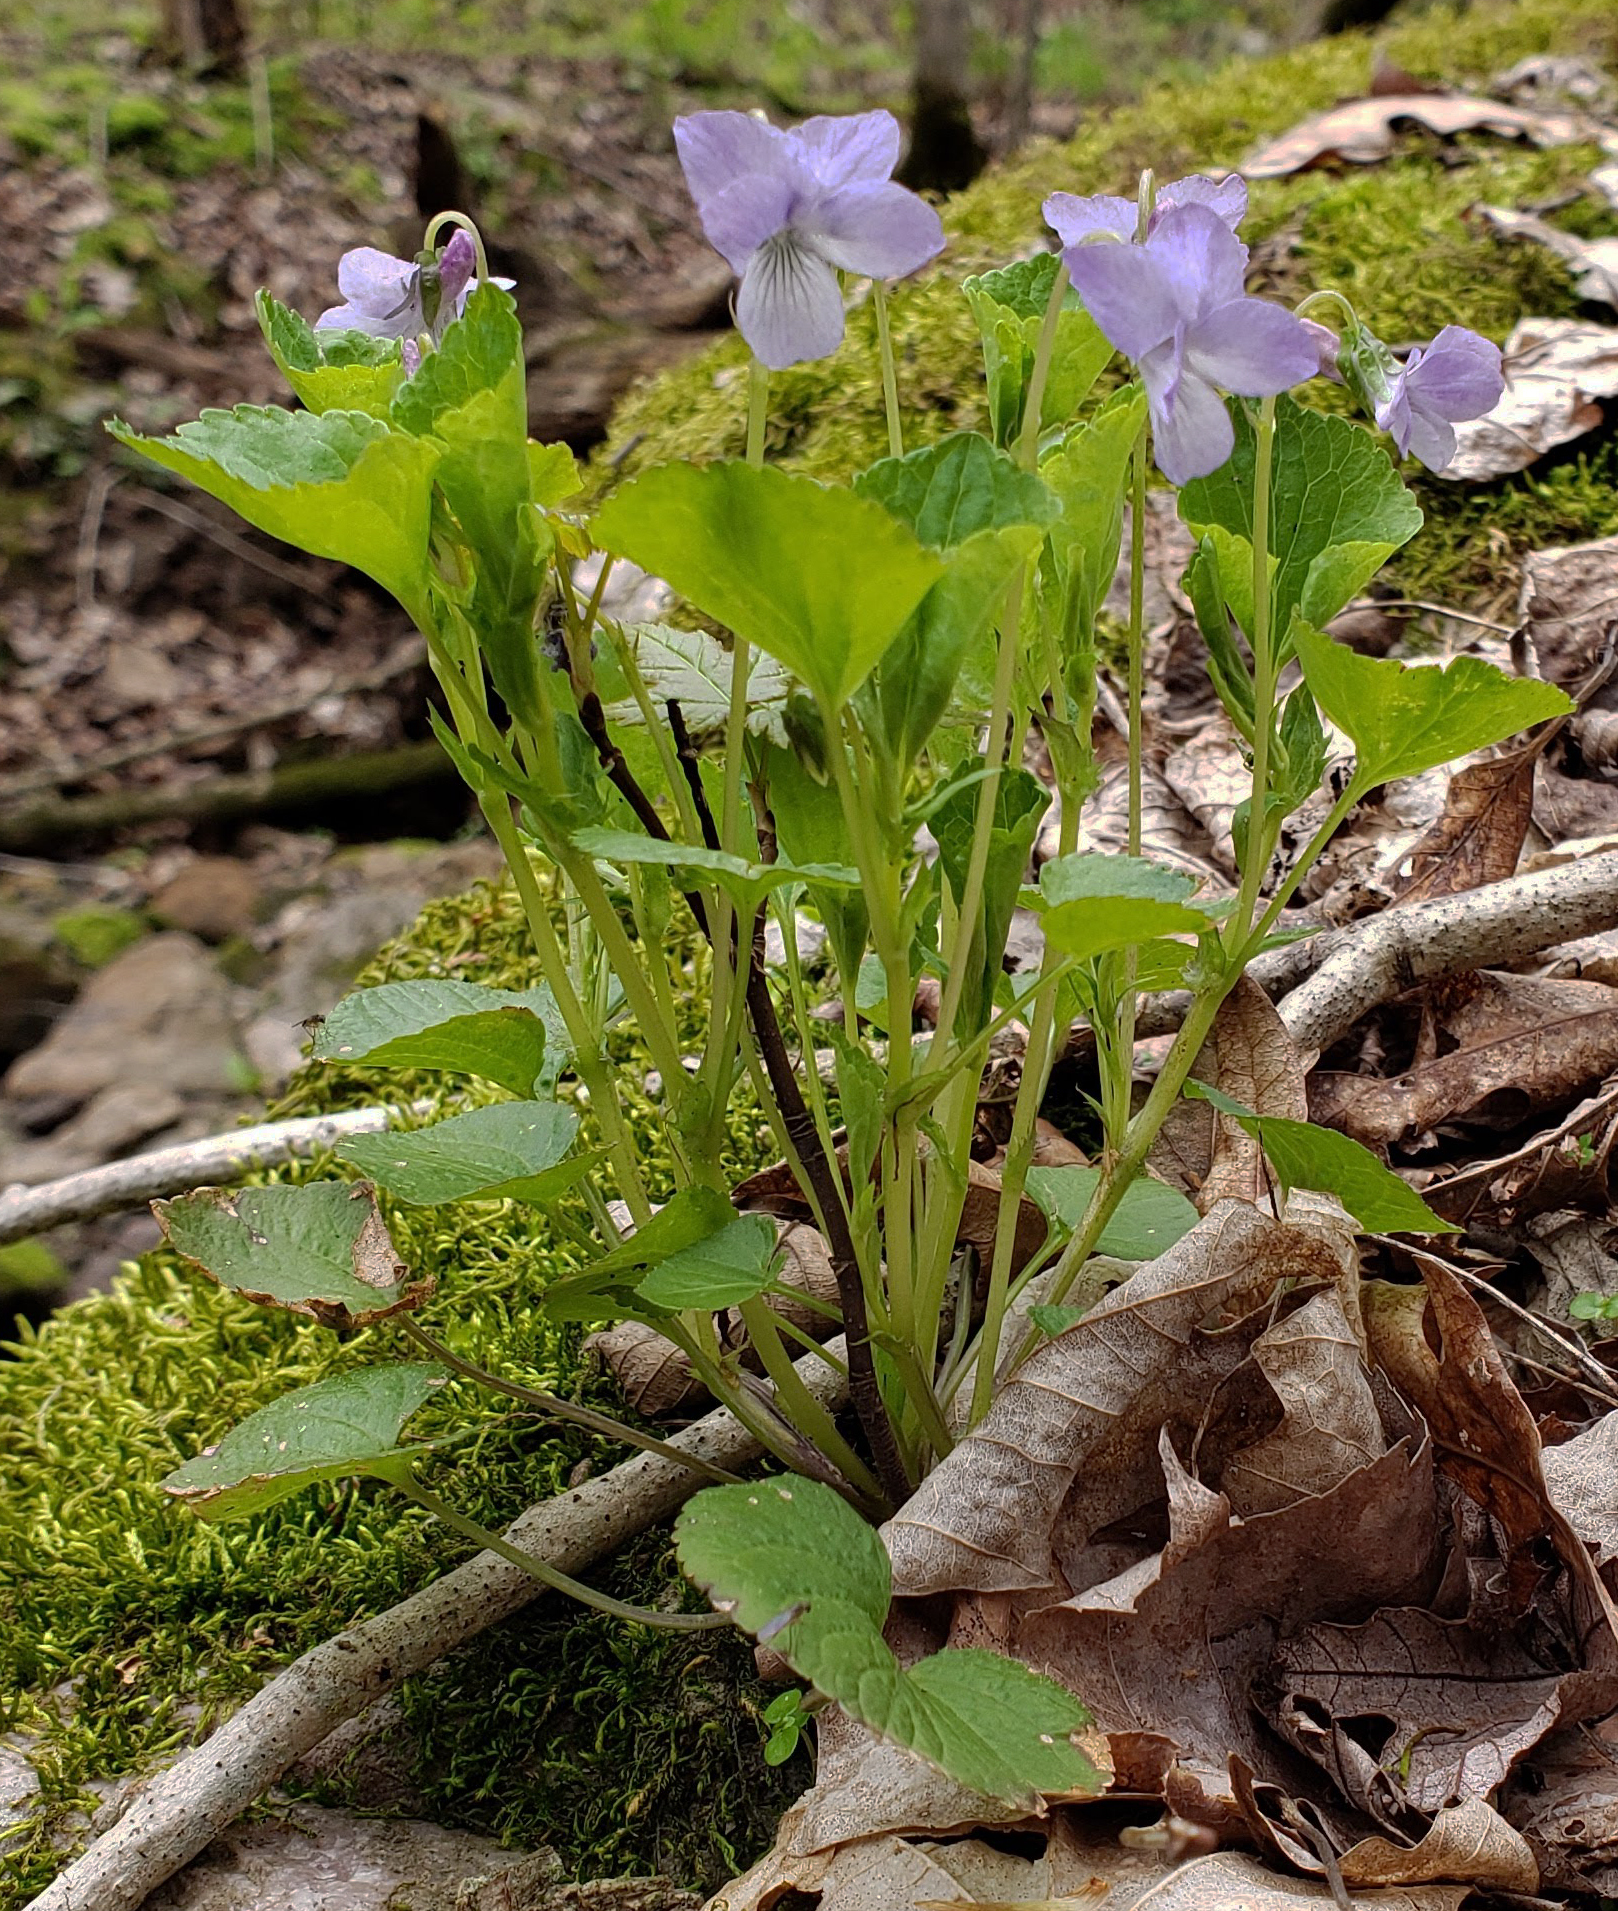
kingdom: Plantae
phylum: Tracheophyta
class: Magnoliopsida
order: Malpighiales
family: Violaceae
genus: Viola
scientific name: Viola labradorica
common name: Labrador violet
